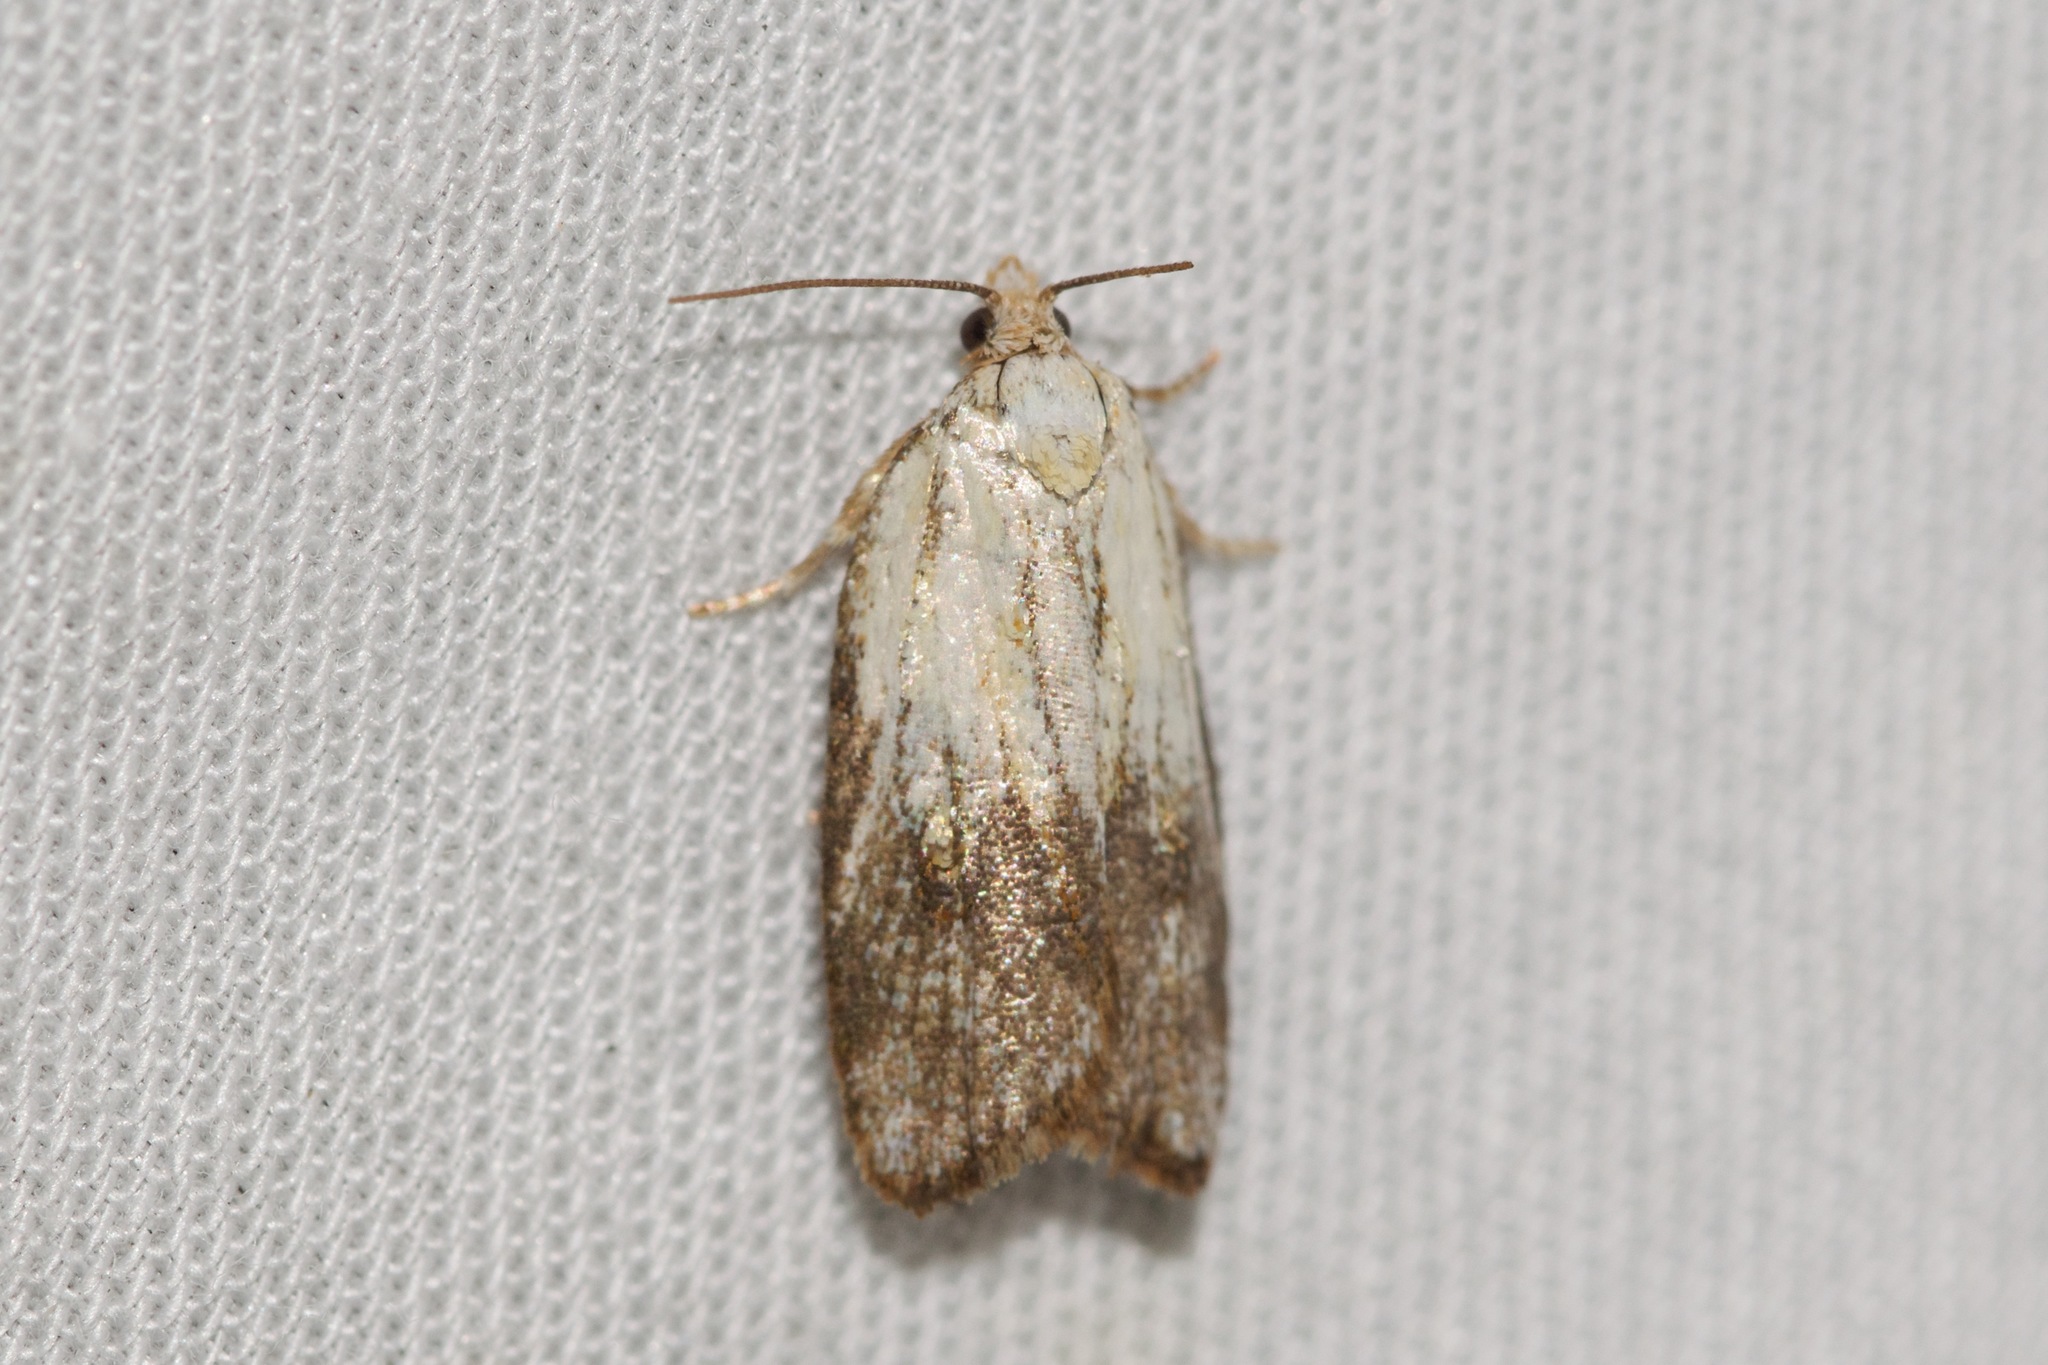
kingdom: Animalia
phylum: Arthropoda
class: Insecta
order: Lepidoptera
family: Tortricidae
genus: Acleris
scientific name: Acleris variana
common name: Eastern black-headed budworm moth
